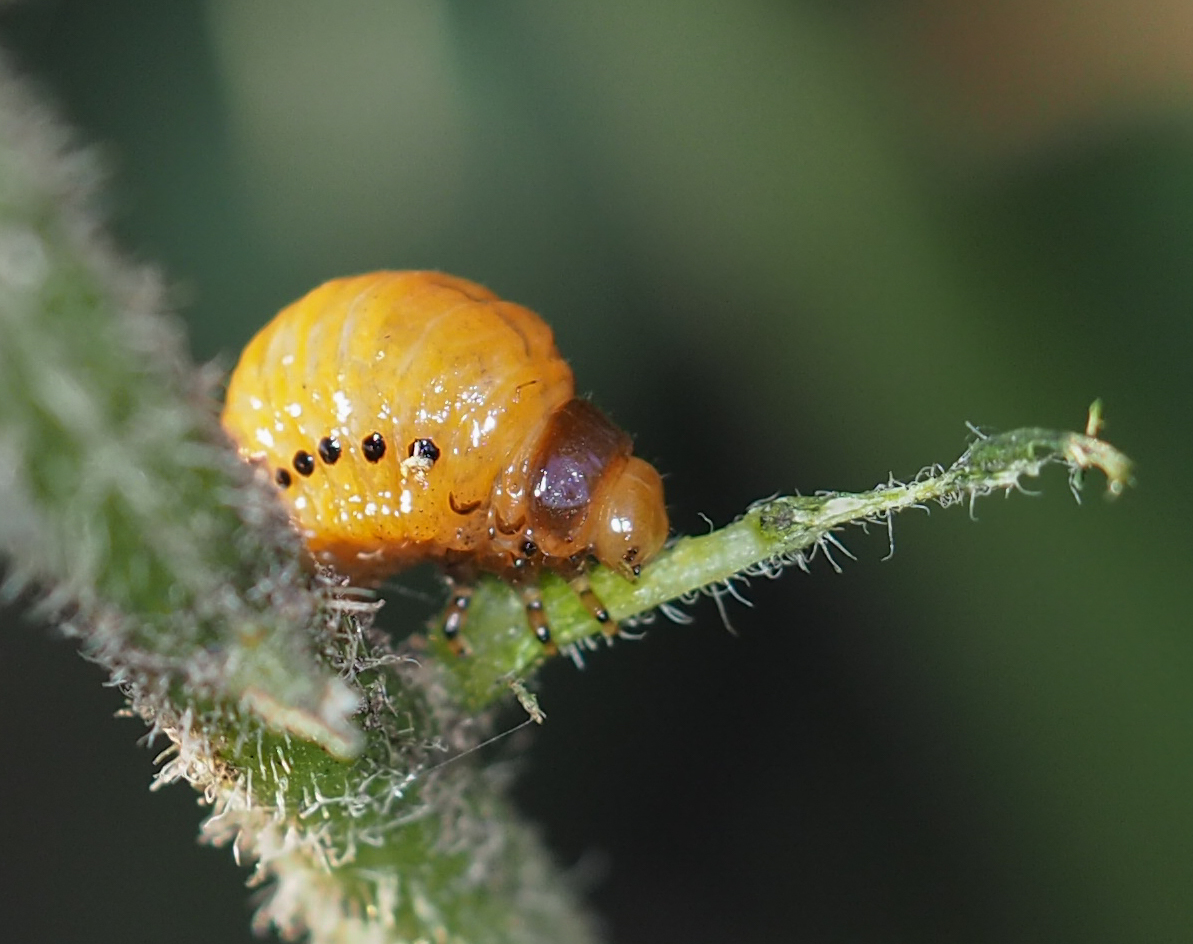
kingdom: Animalia
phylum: Arthropoda
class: Insecta
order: Coleoptera
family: Chrysomelidae
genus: Labidomera
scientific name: Labidomera clivicollis
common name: Swamp milkweed leaf beetle
